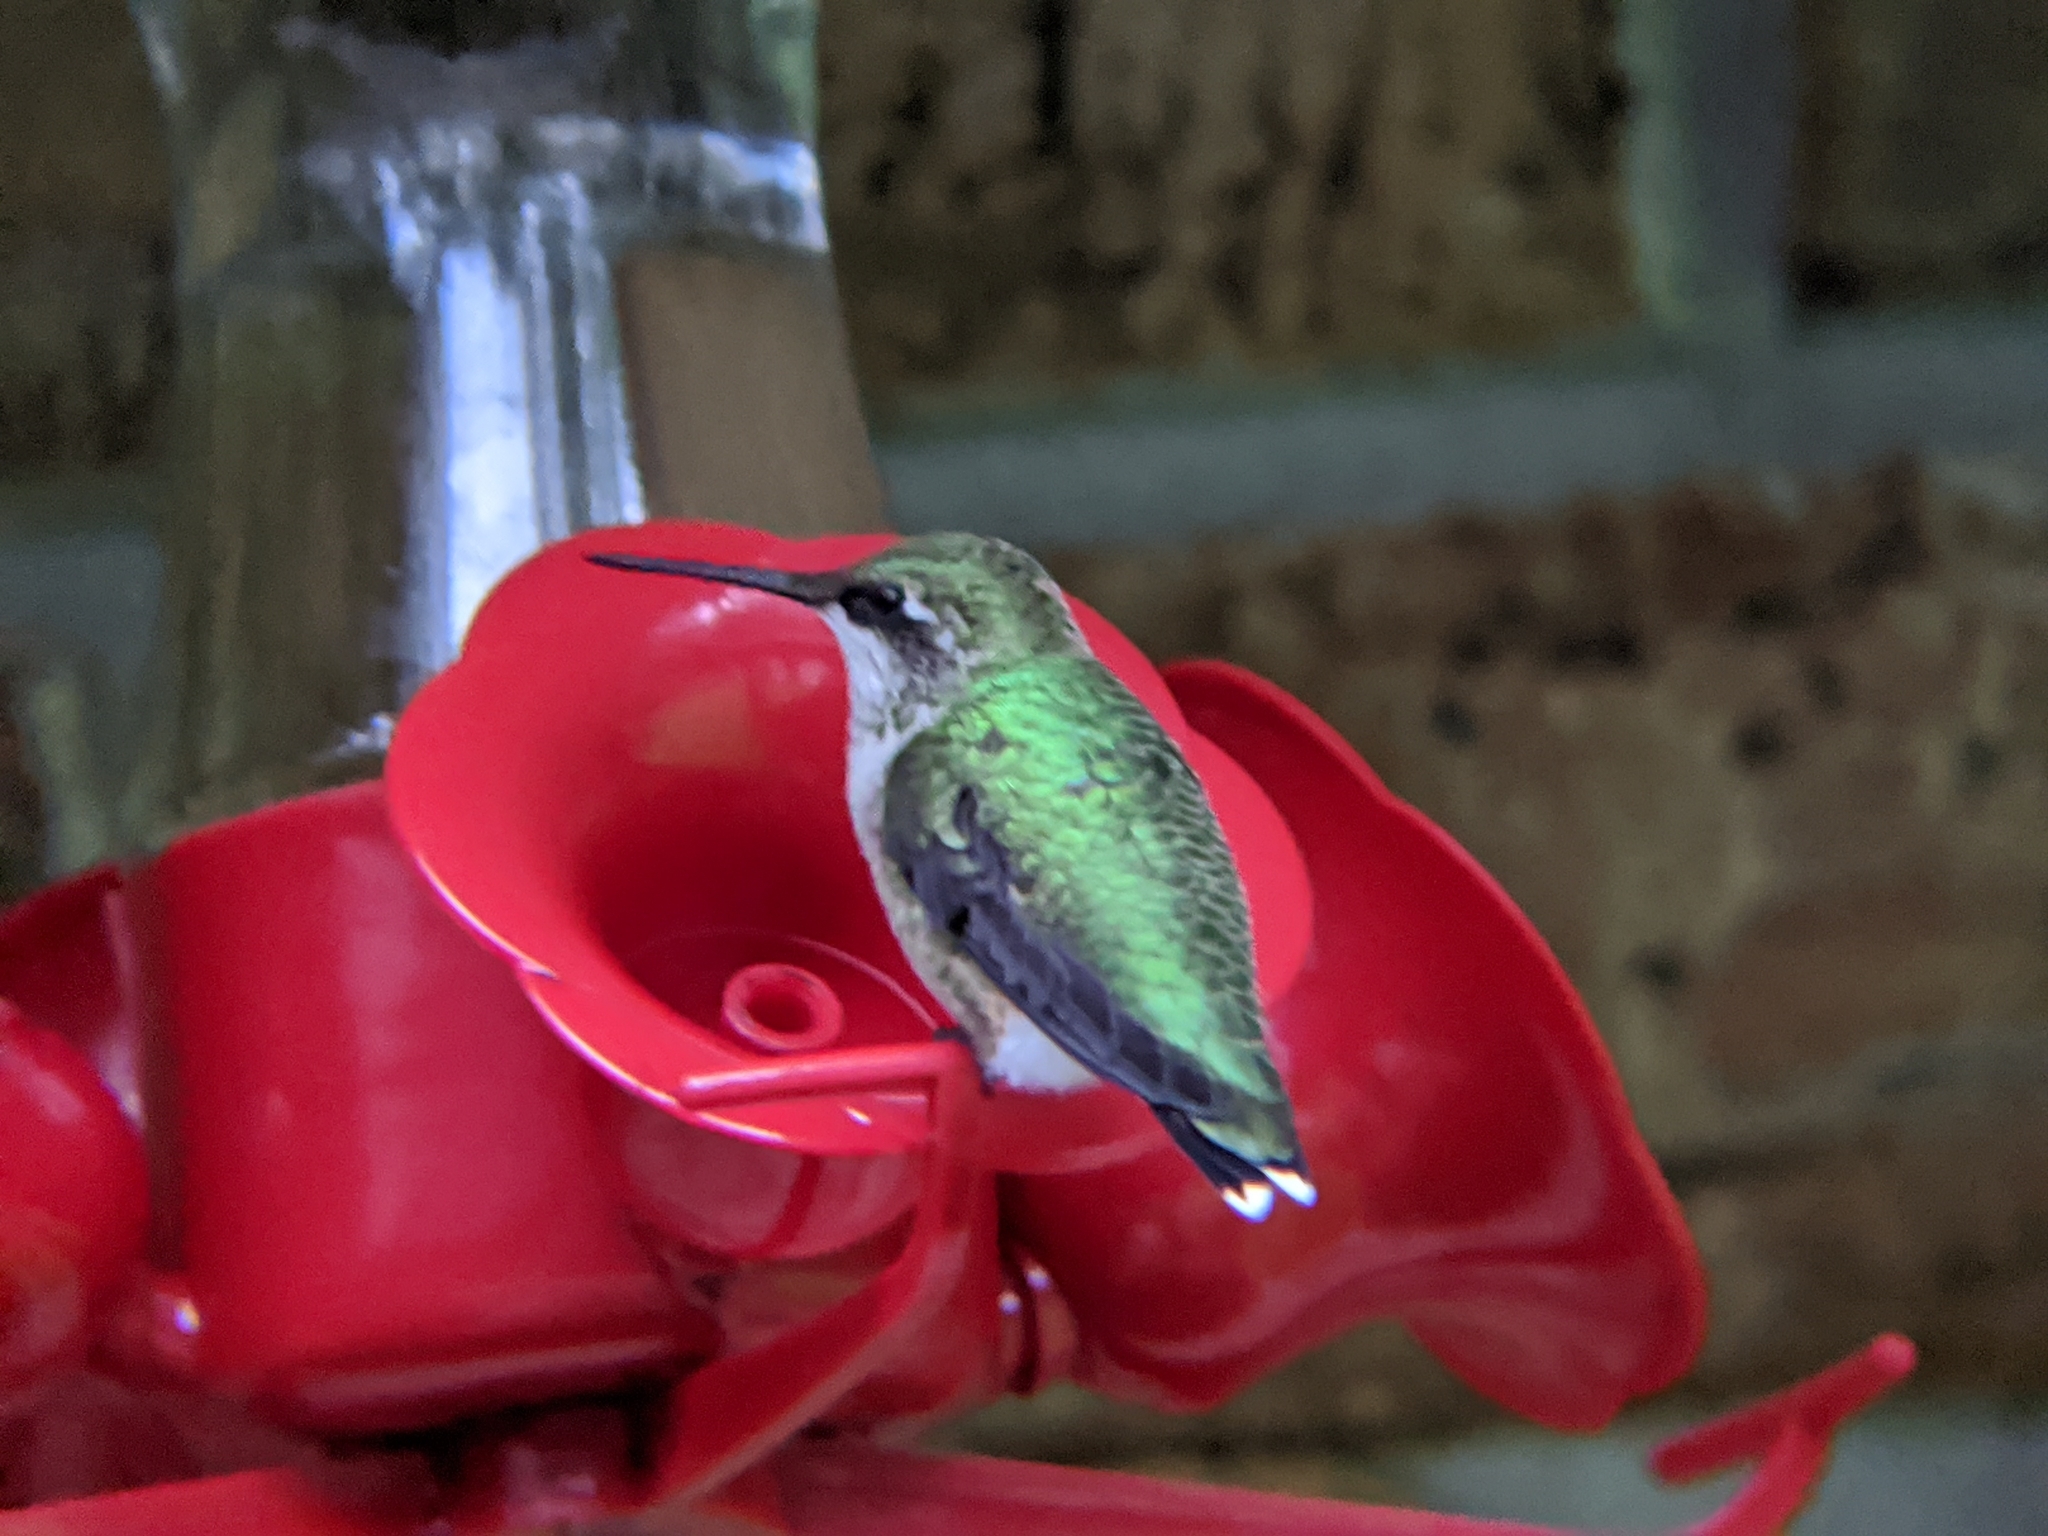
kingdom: Animalia
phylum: Chordata
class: Aves
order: Apodiformes
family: Trochilidae
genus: Archilochus
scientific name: Archilochus colubris
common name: Ruby-throated hummingbird
